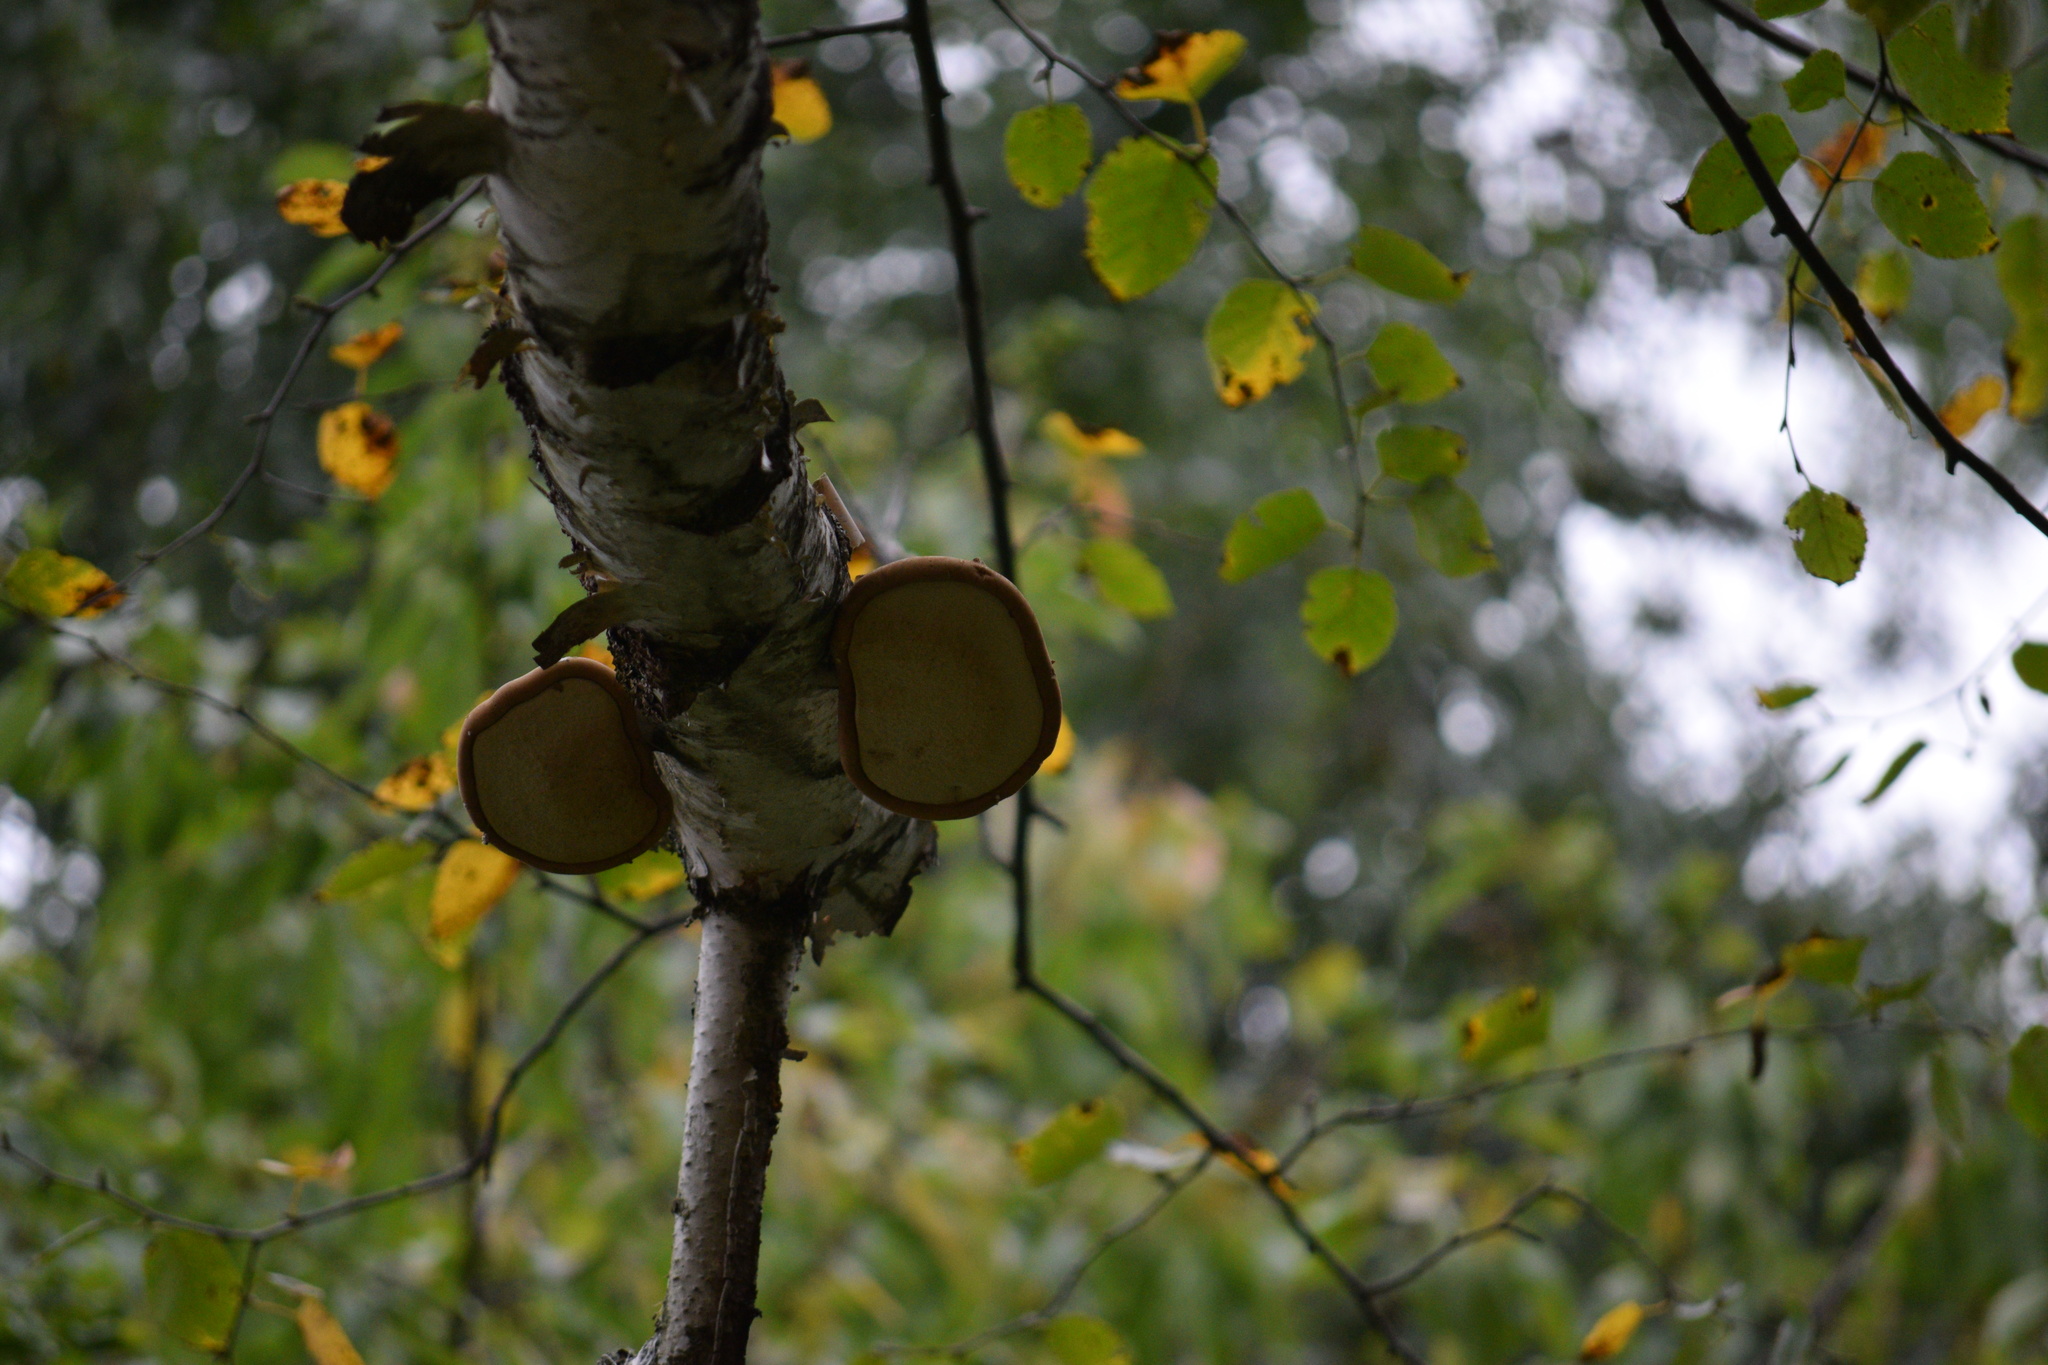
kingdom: Fungi
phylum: Basidiomycota
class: Agaricomycetes
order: Polyporales
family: Fomitopsidaceae
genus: Fomitopsis
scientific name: Fomitopsis betulina
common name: Birch polypore
